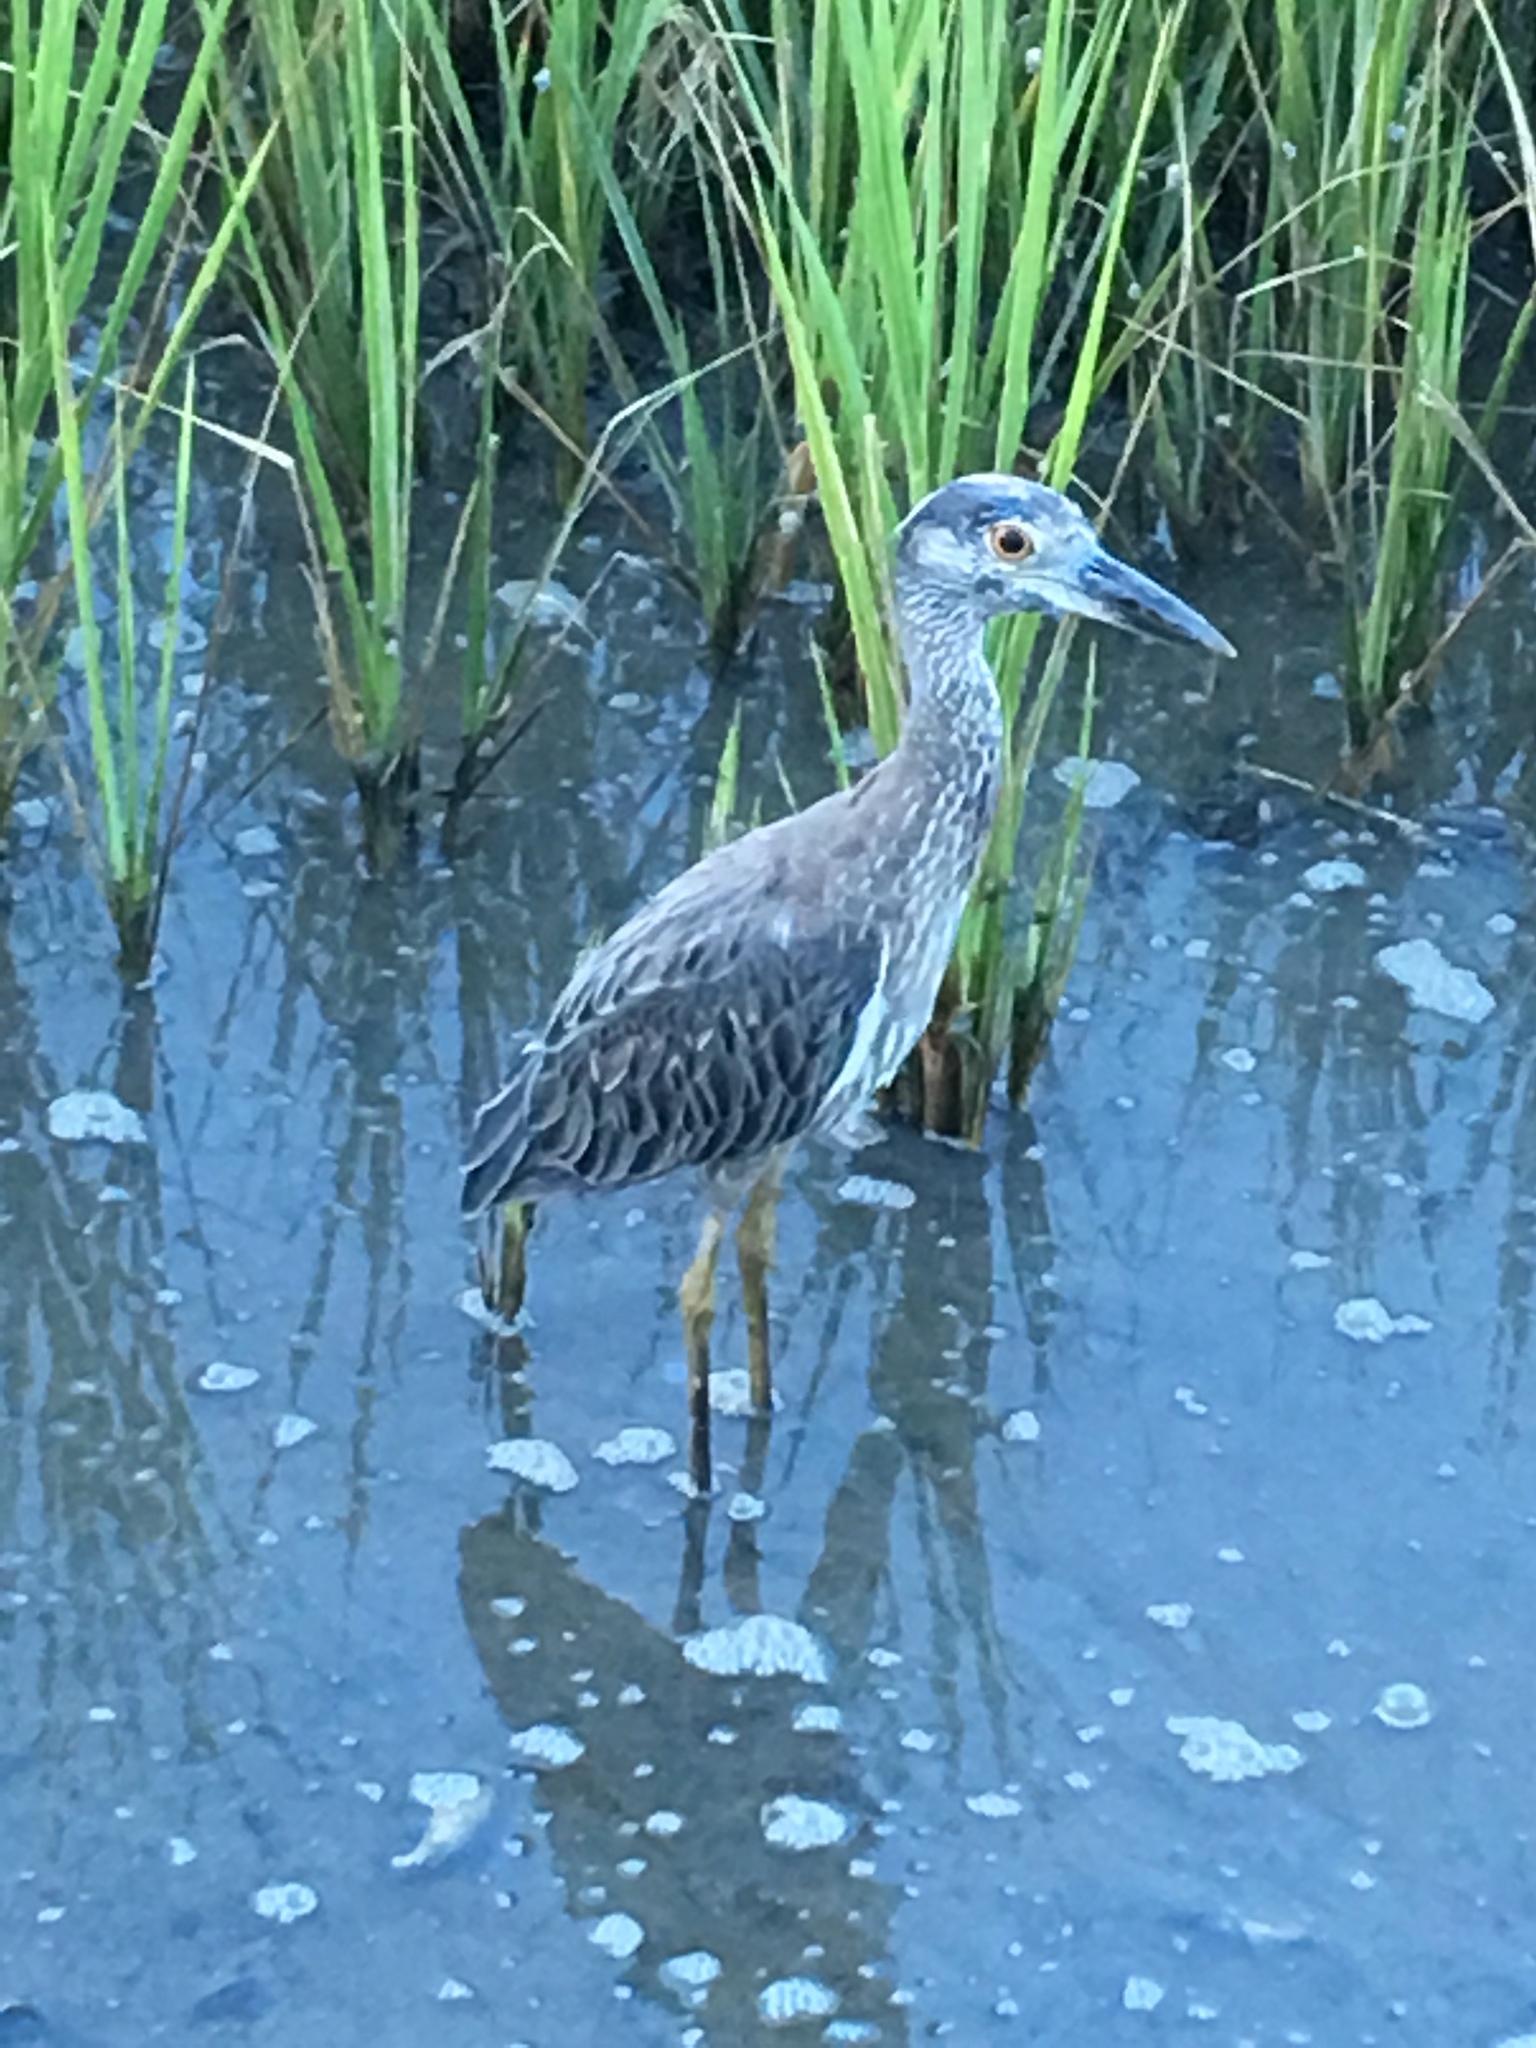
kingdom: Animalia
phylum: Chordata
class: Aves
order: Pelecaniformes
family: Ardeidae
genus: Nyctanassa
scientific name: Nyctanassa violacea
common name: Yellow-crowned night heron
